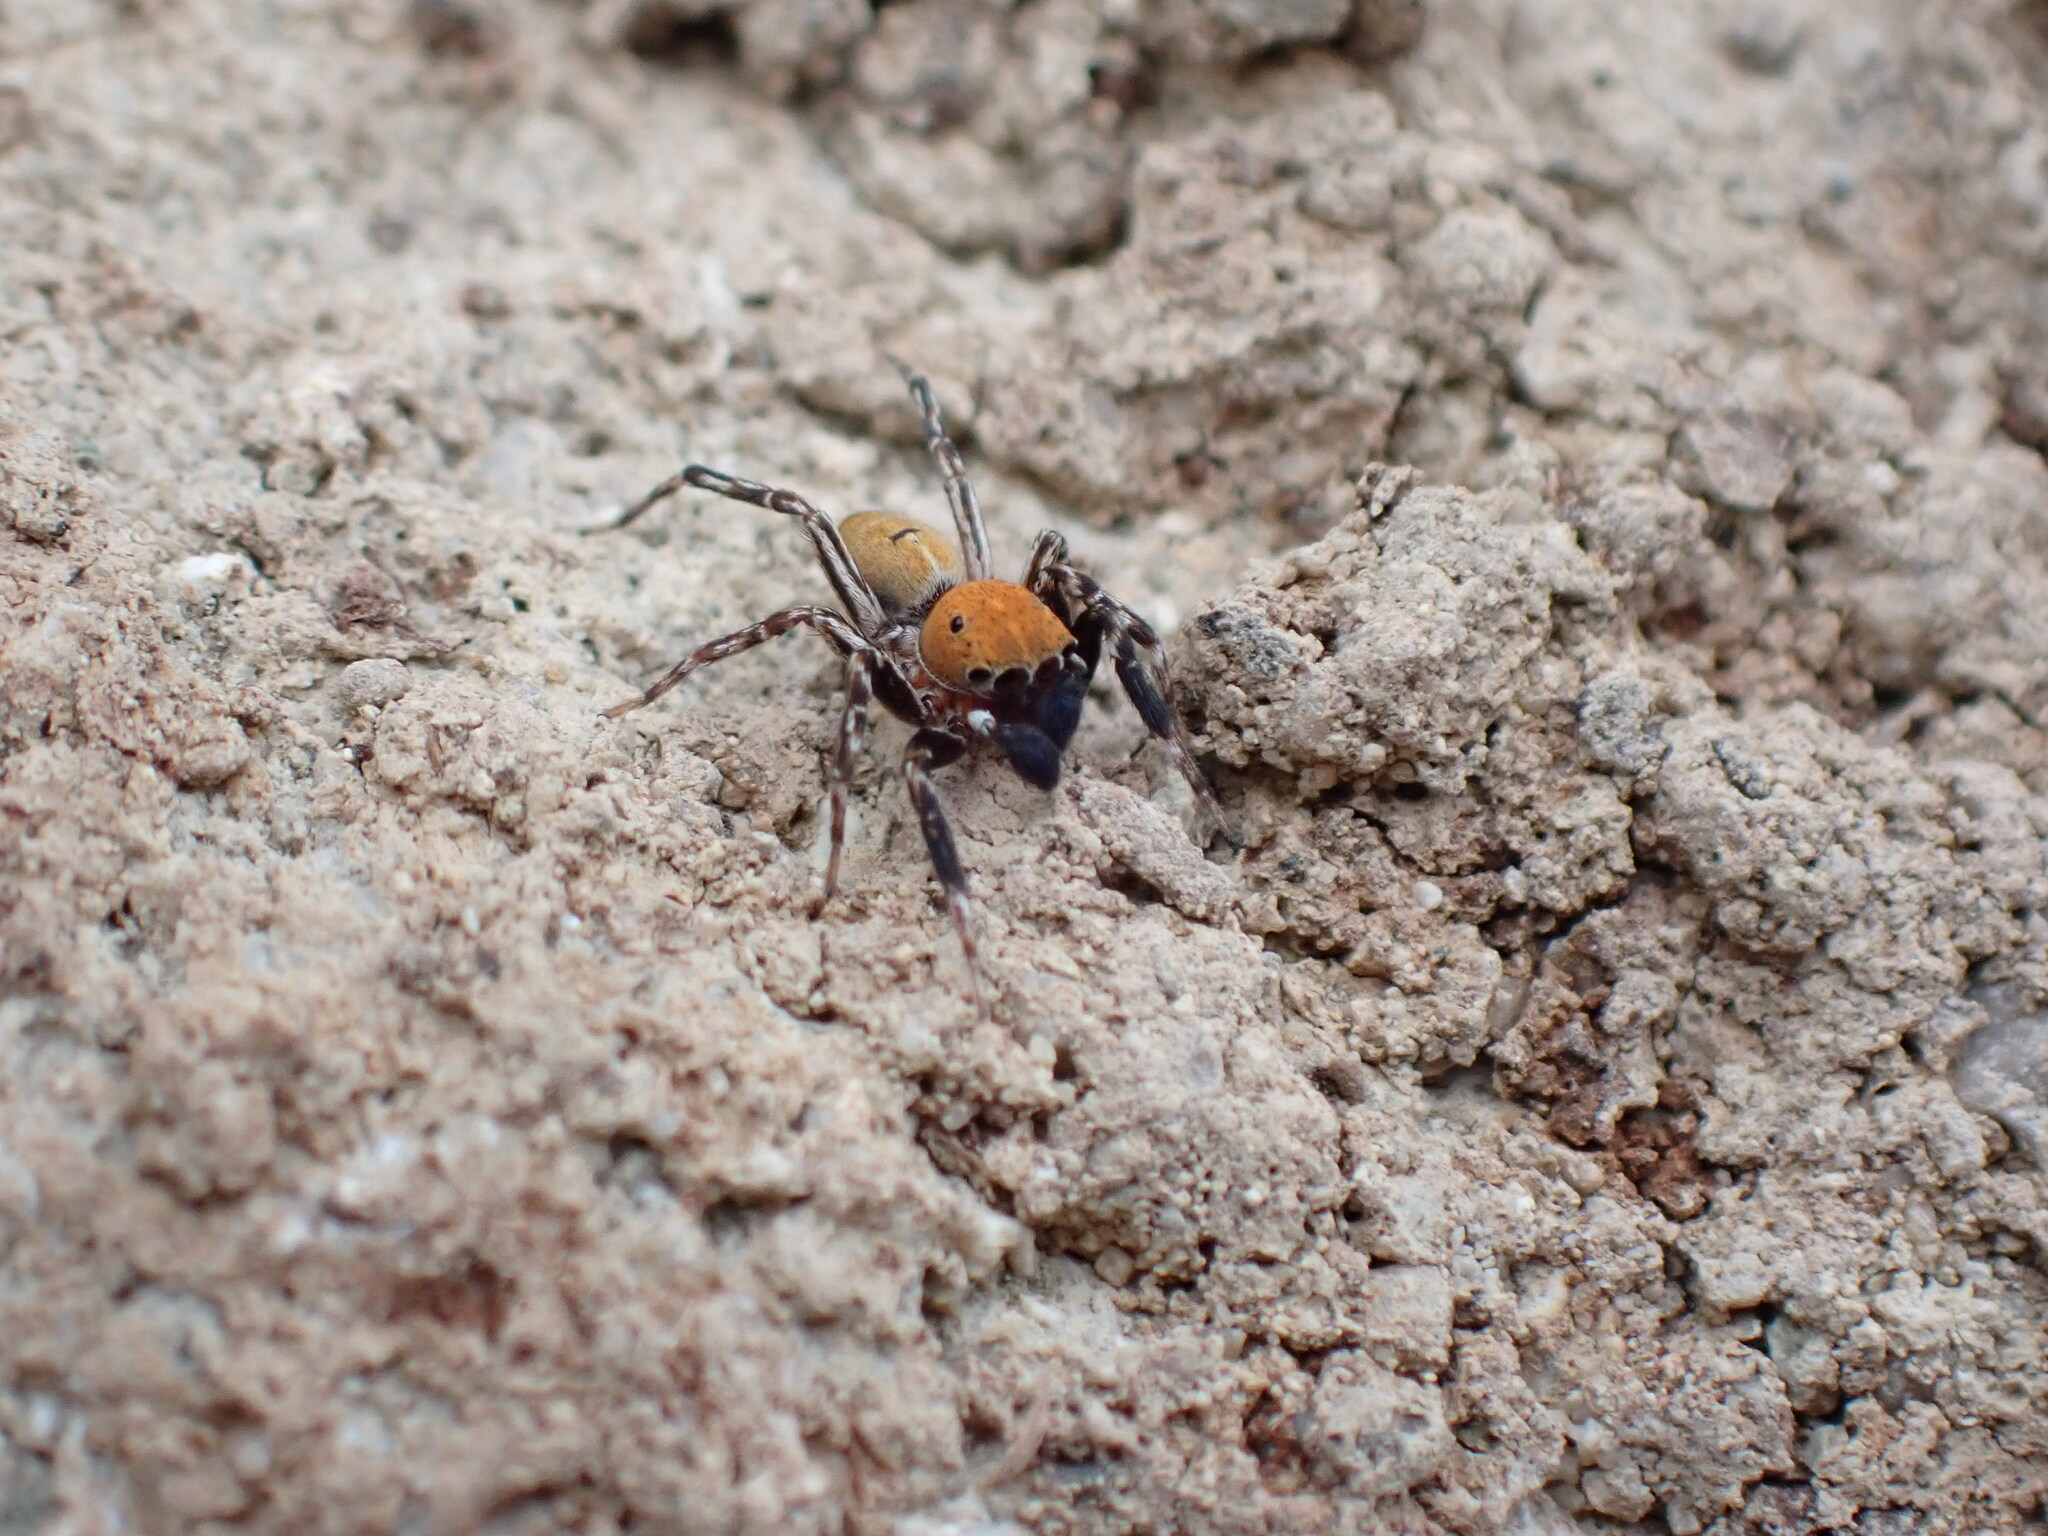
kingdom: Animalia
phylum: Arthropoda
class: Arachnida
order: Araneae
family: Salticidae
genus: Cyrba
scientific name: Cyrba algerina
